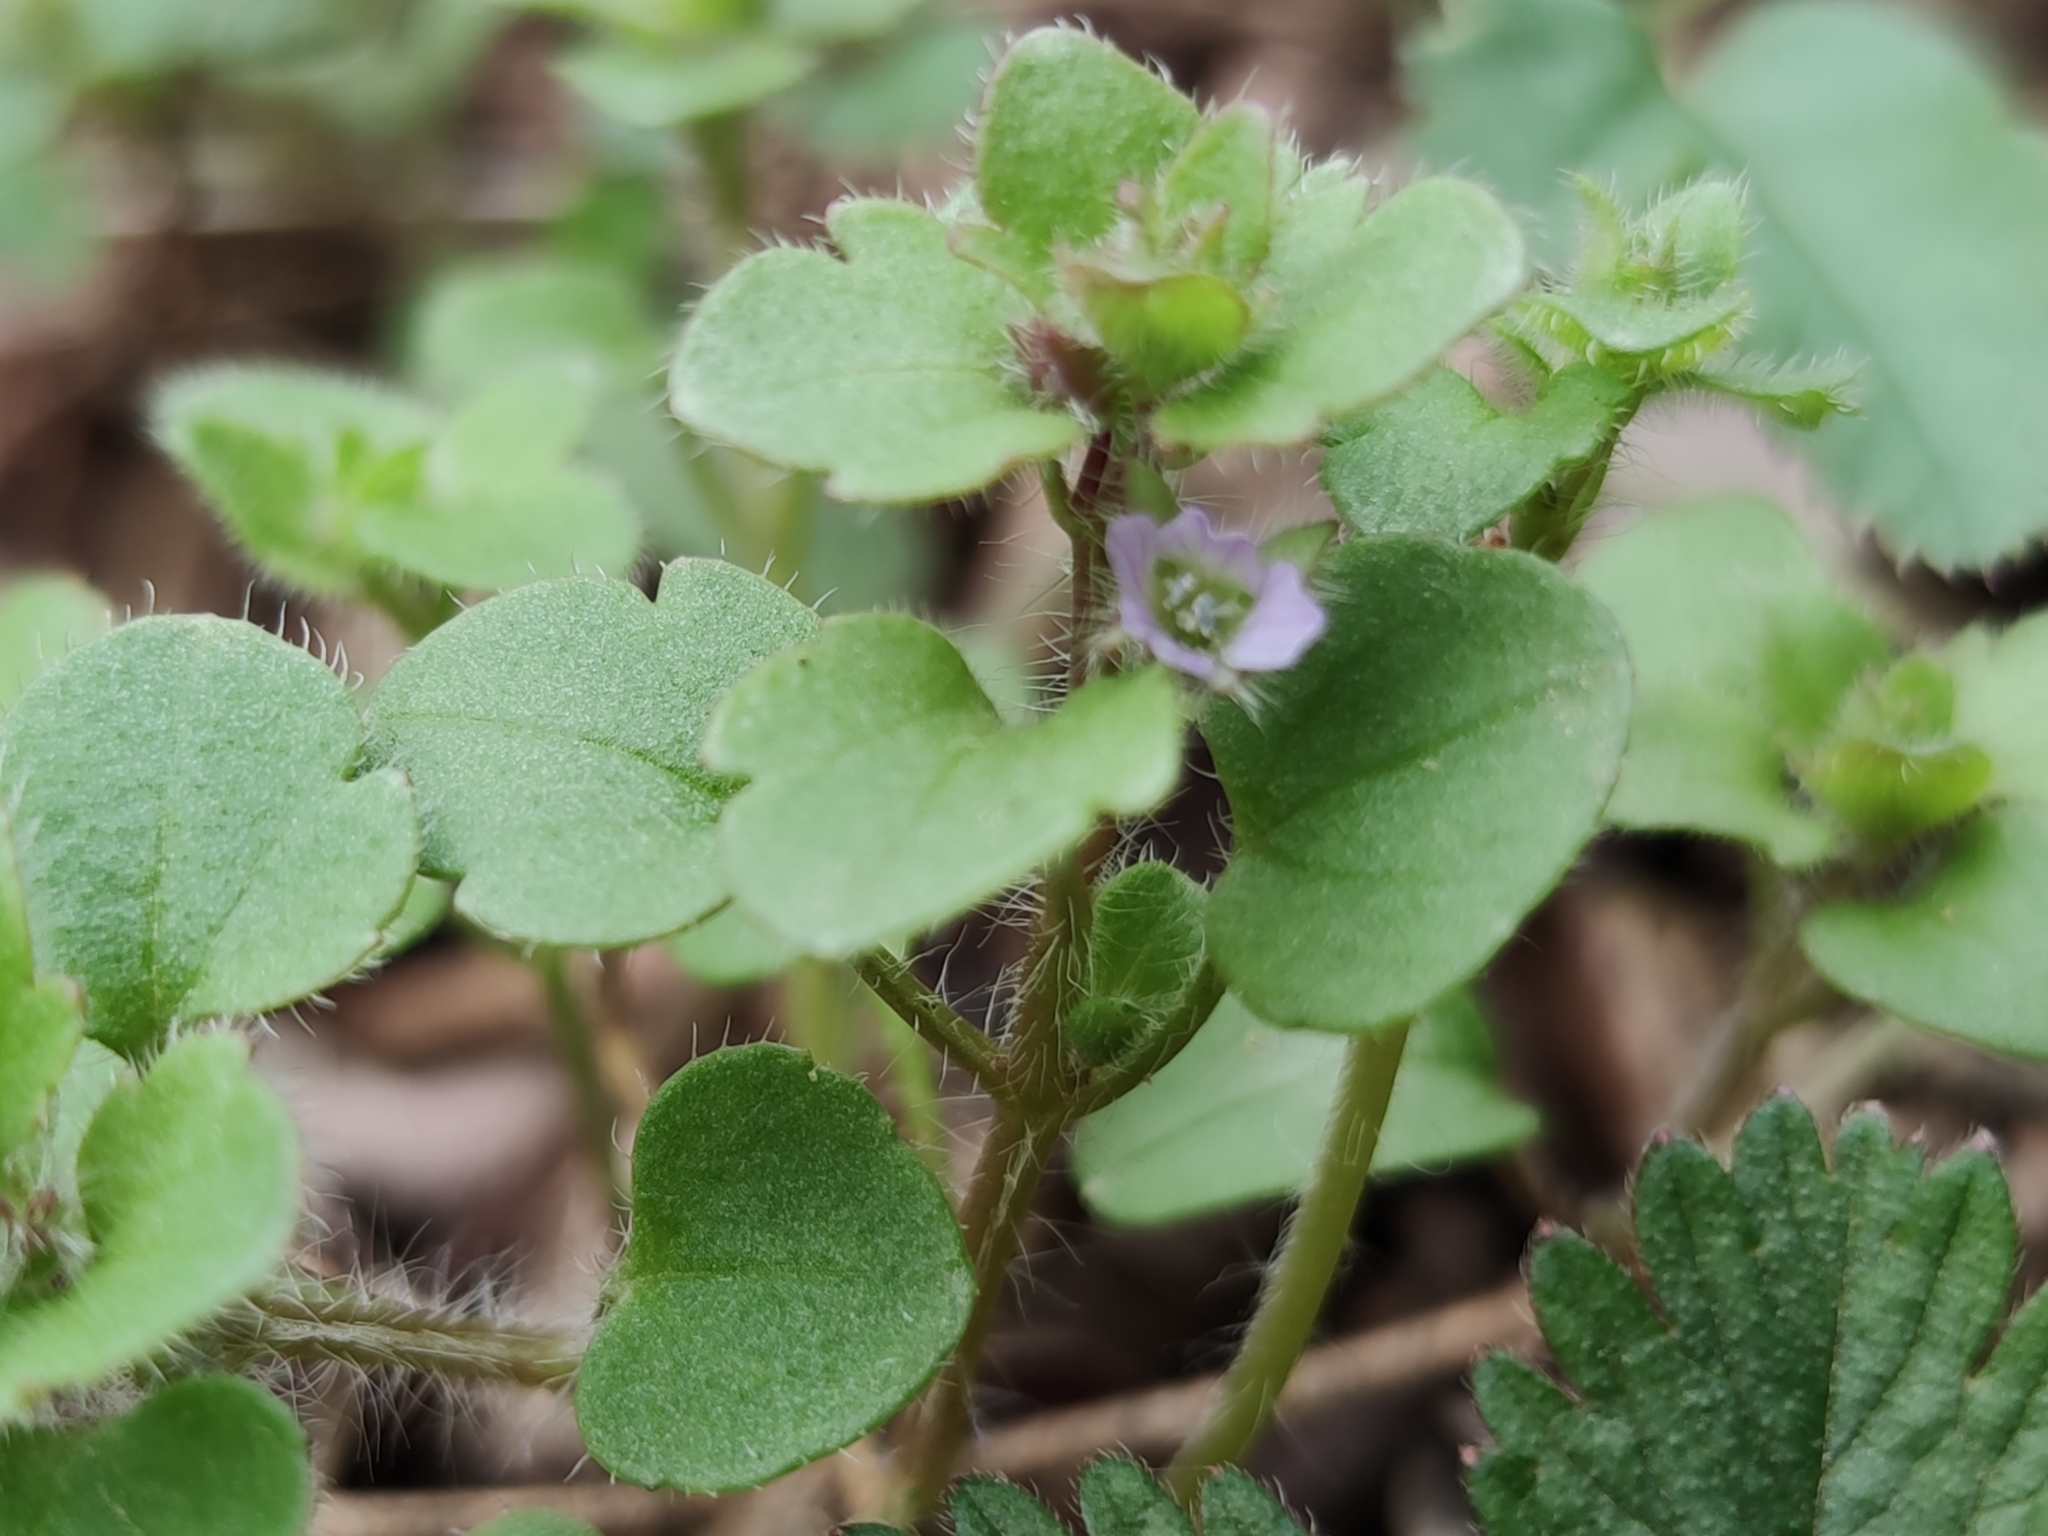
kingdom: Plantae
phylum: Tracheophyta
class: Magnoliopsida
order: Lamiales
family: Plantaginaceae
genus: Veronica
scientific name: Veronica sublobata
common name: False ivy-leaved speedwell
